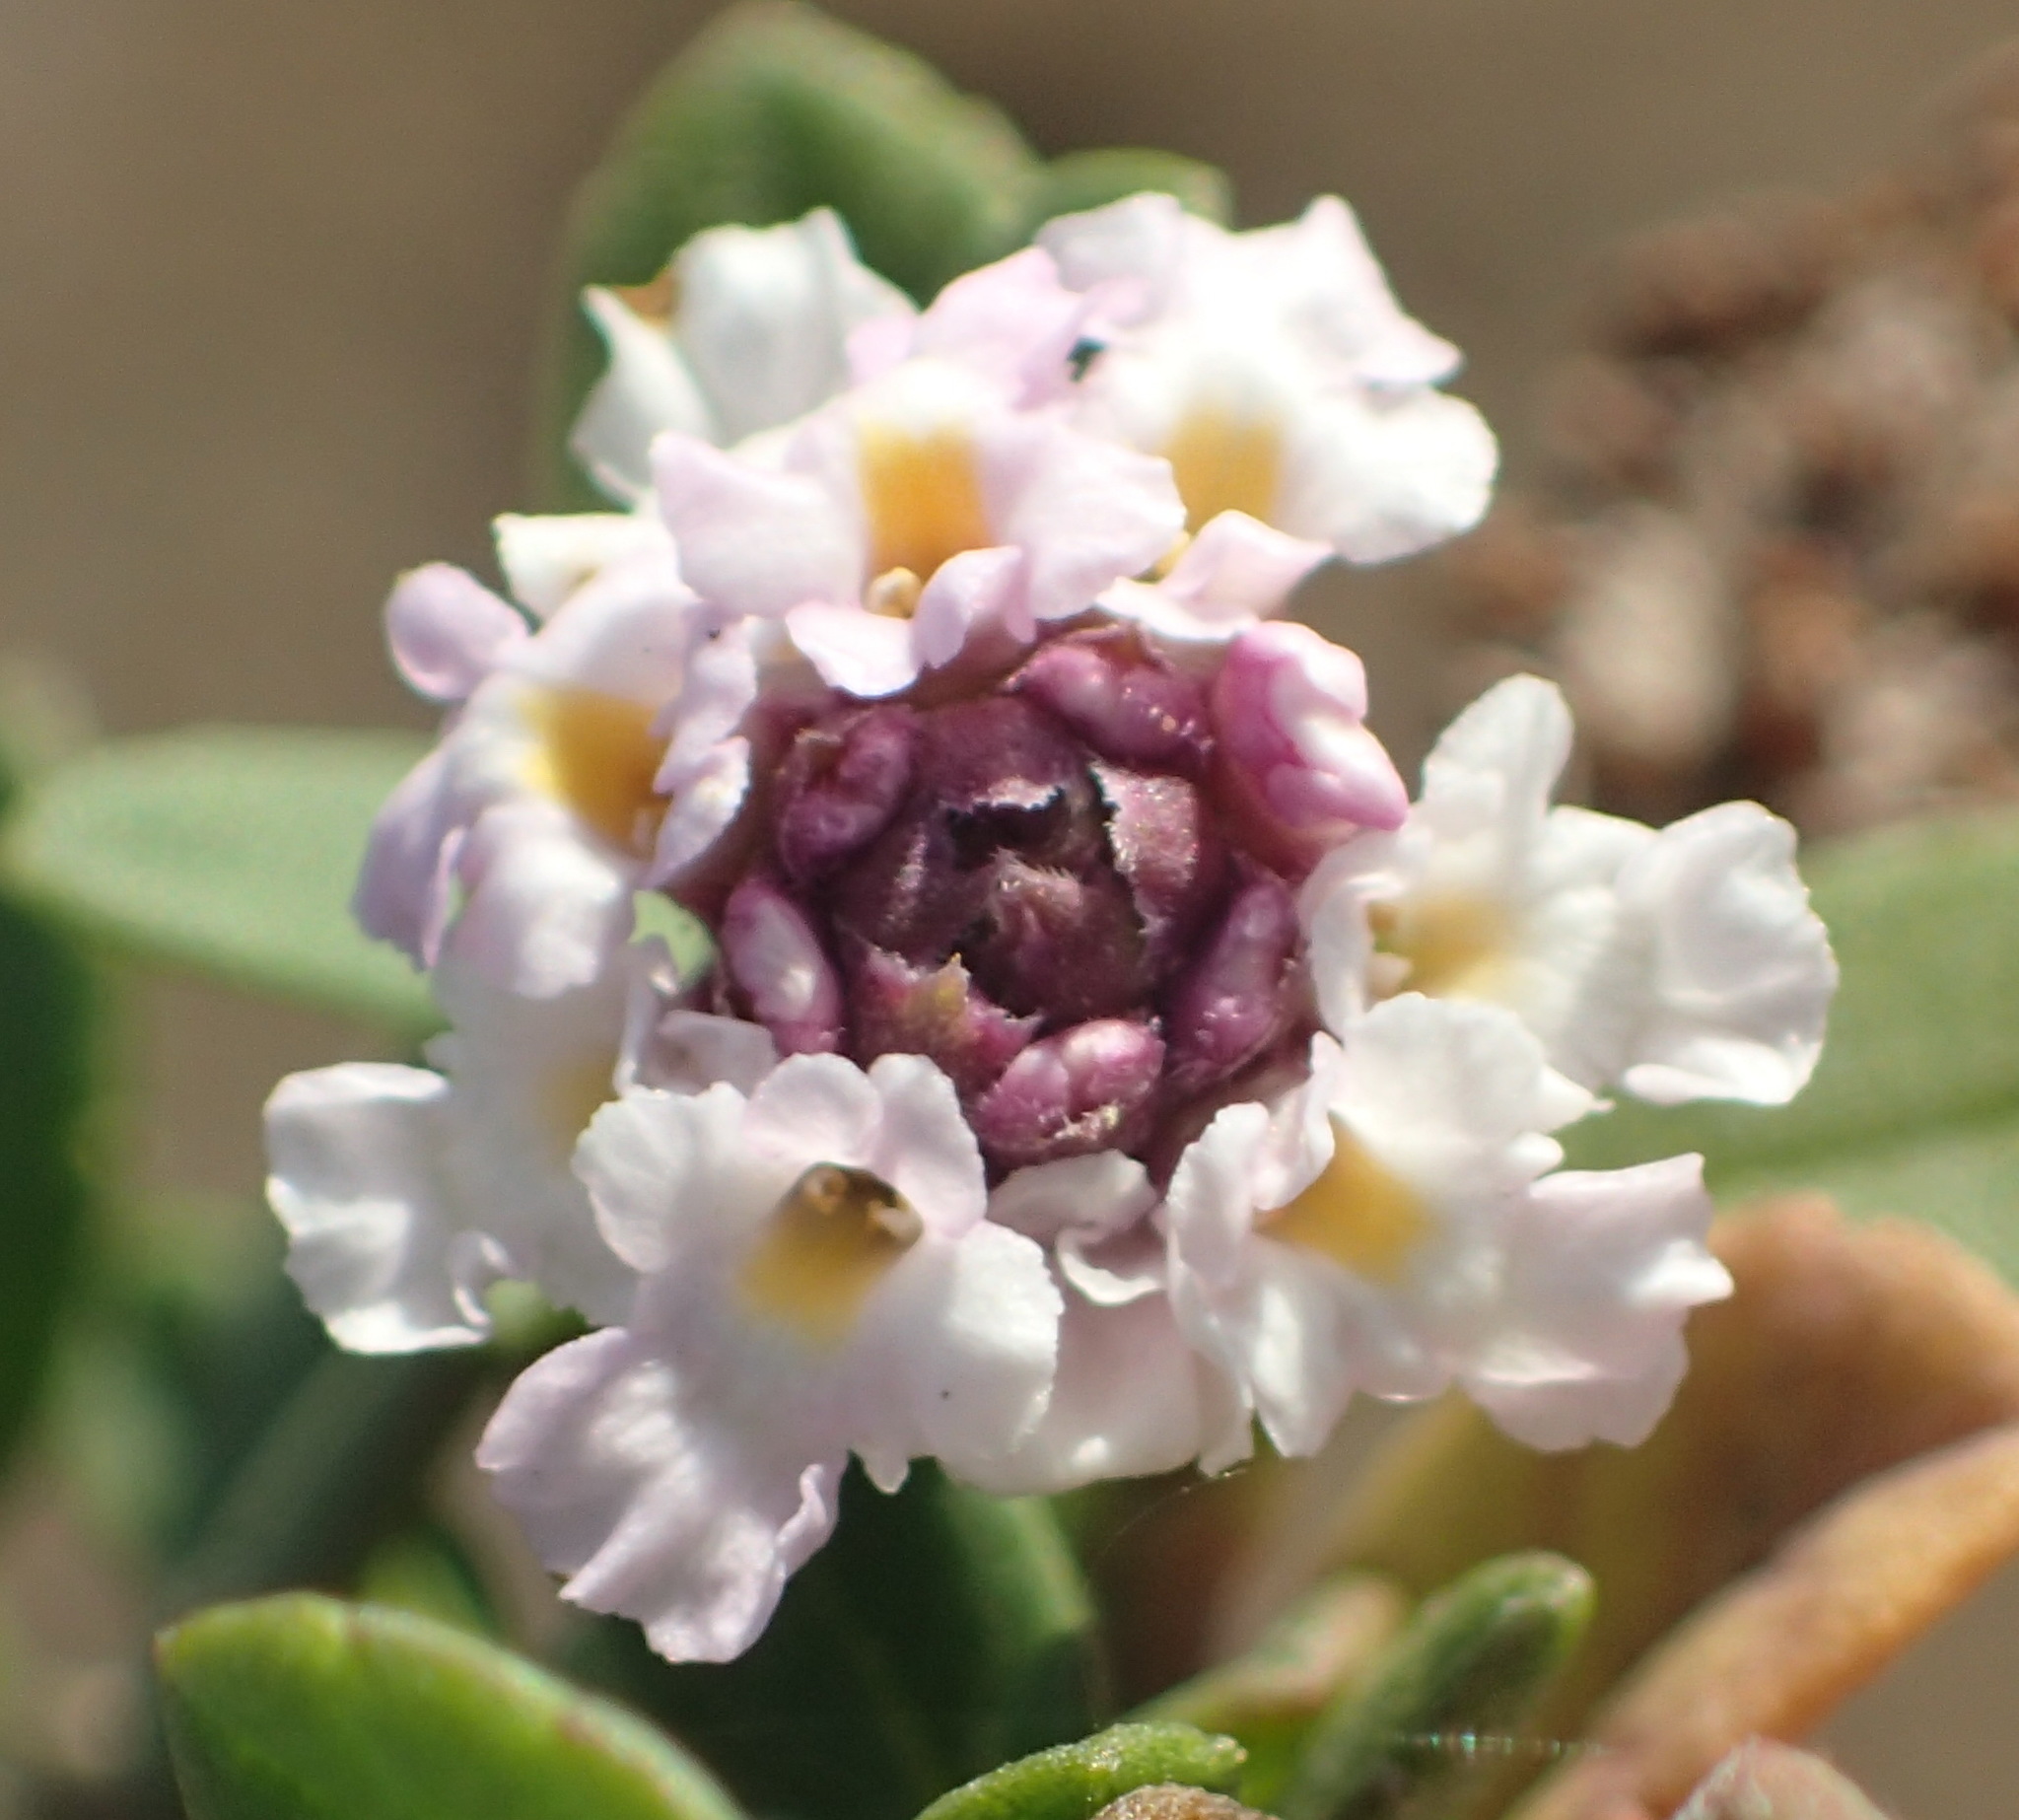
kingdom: Plantae
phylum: Tracheophyta
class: Magnoliopsida
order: Lamiales
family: Verbenaceae
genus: Phyla
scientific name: Phyla nodiflora
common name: Frogfruit
